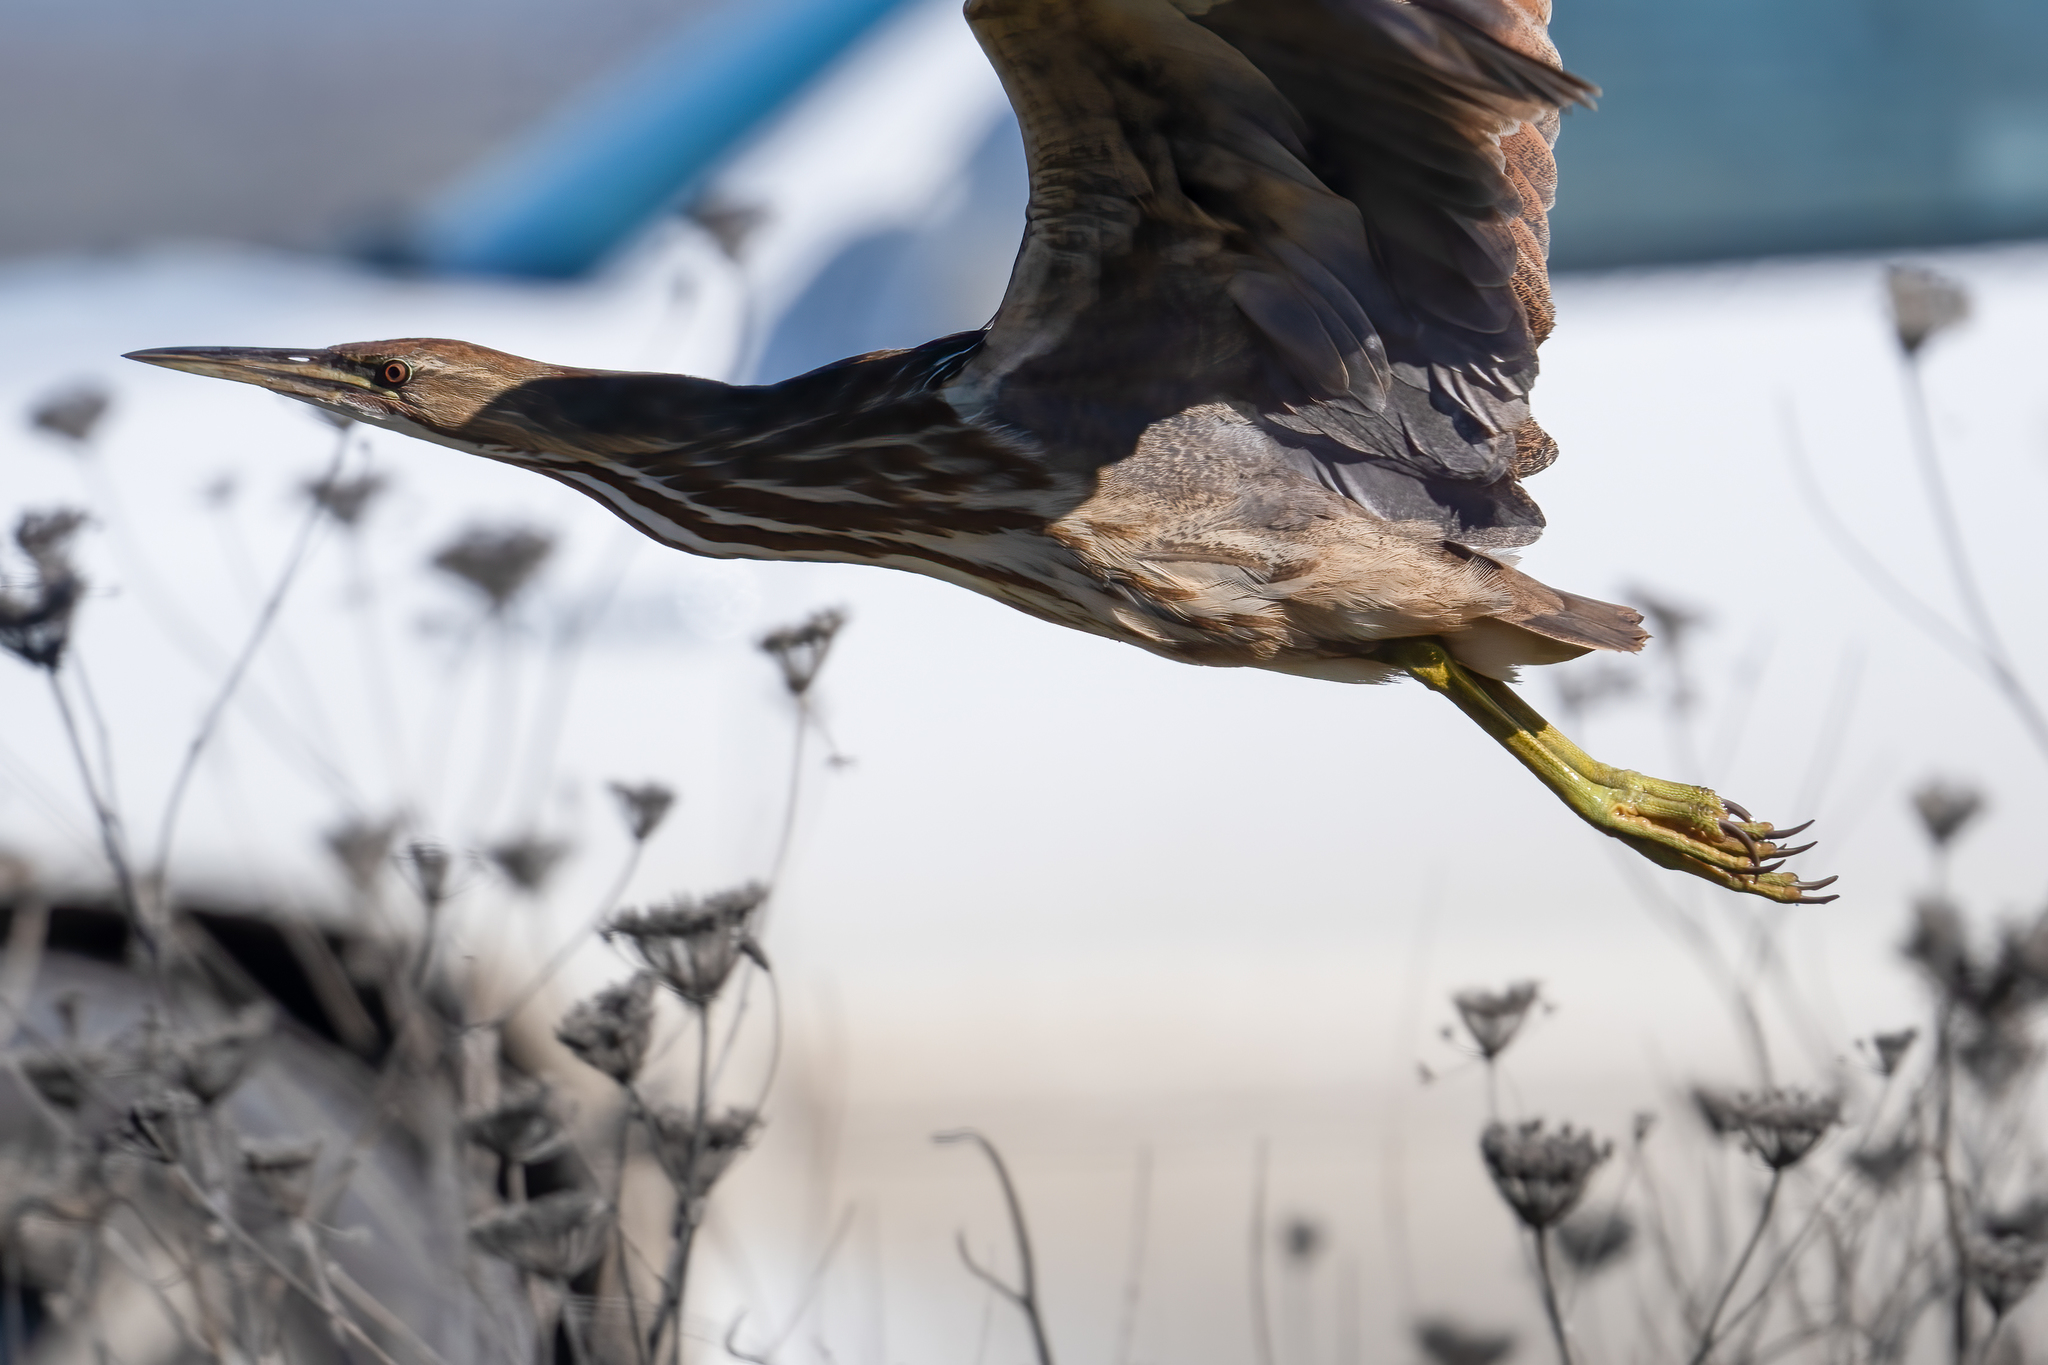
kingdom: Animalia
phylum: Chordata
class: Aves
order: Pelecaniformes
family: Ardeidae
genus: Botaurus
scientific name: Botaurus lentiginosus
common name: American bittern
